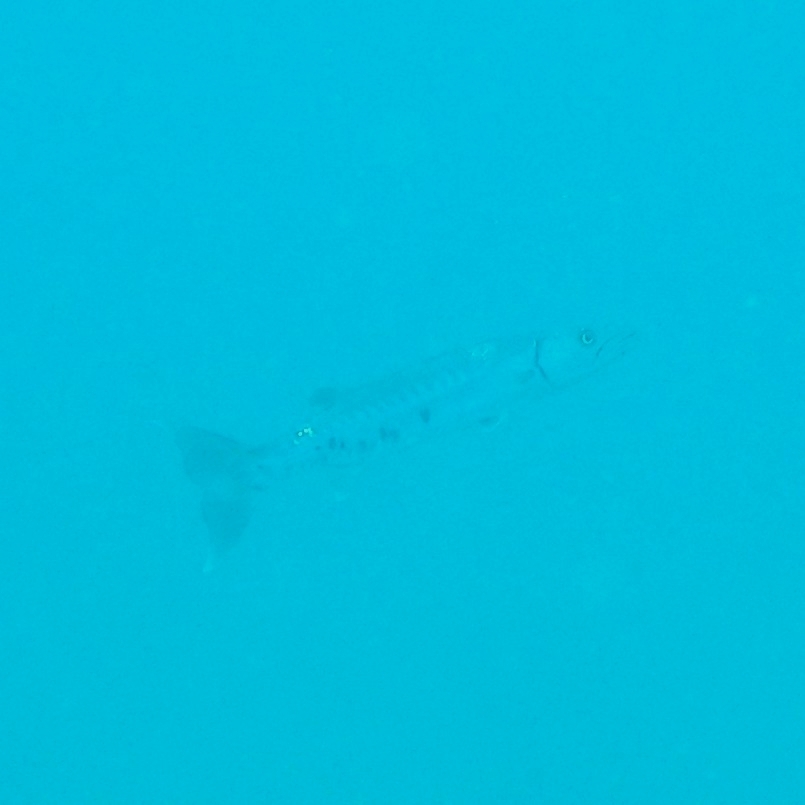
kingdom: Animalia
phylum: Chordata
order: Perciformes
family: Sphyraenidae
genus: Sphyraena
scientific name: Sphyraena barracuda
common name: Great barracuda
